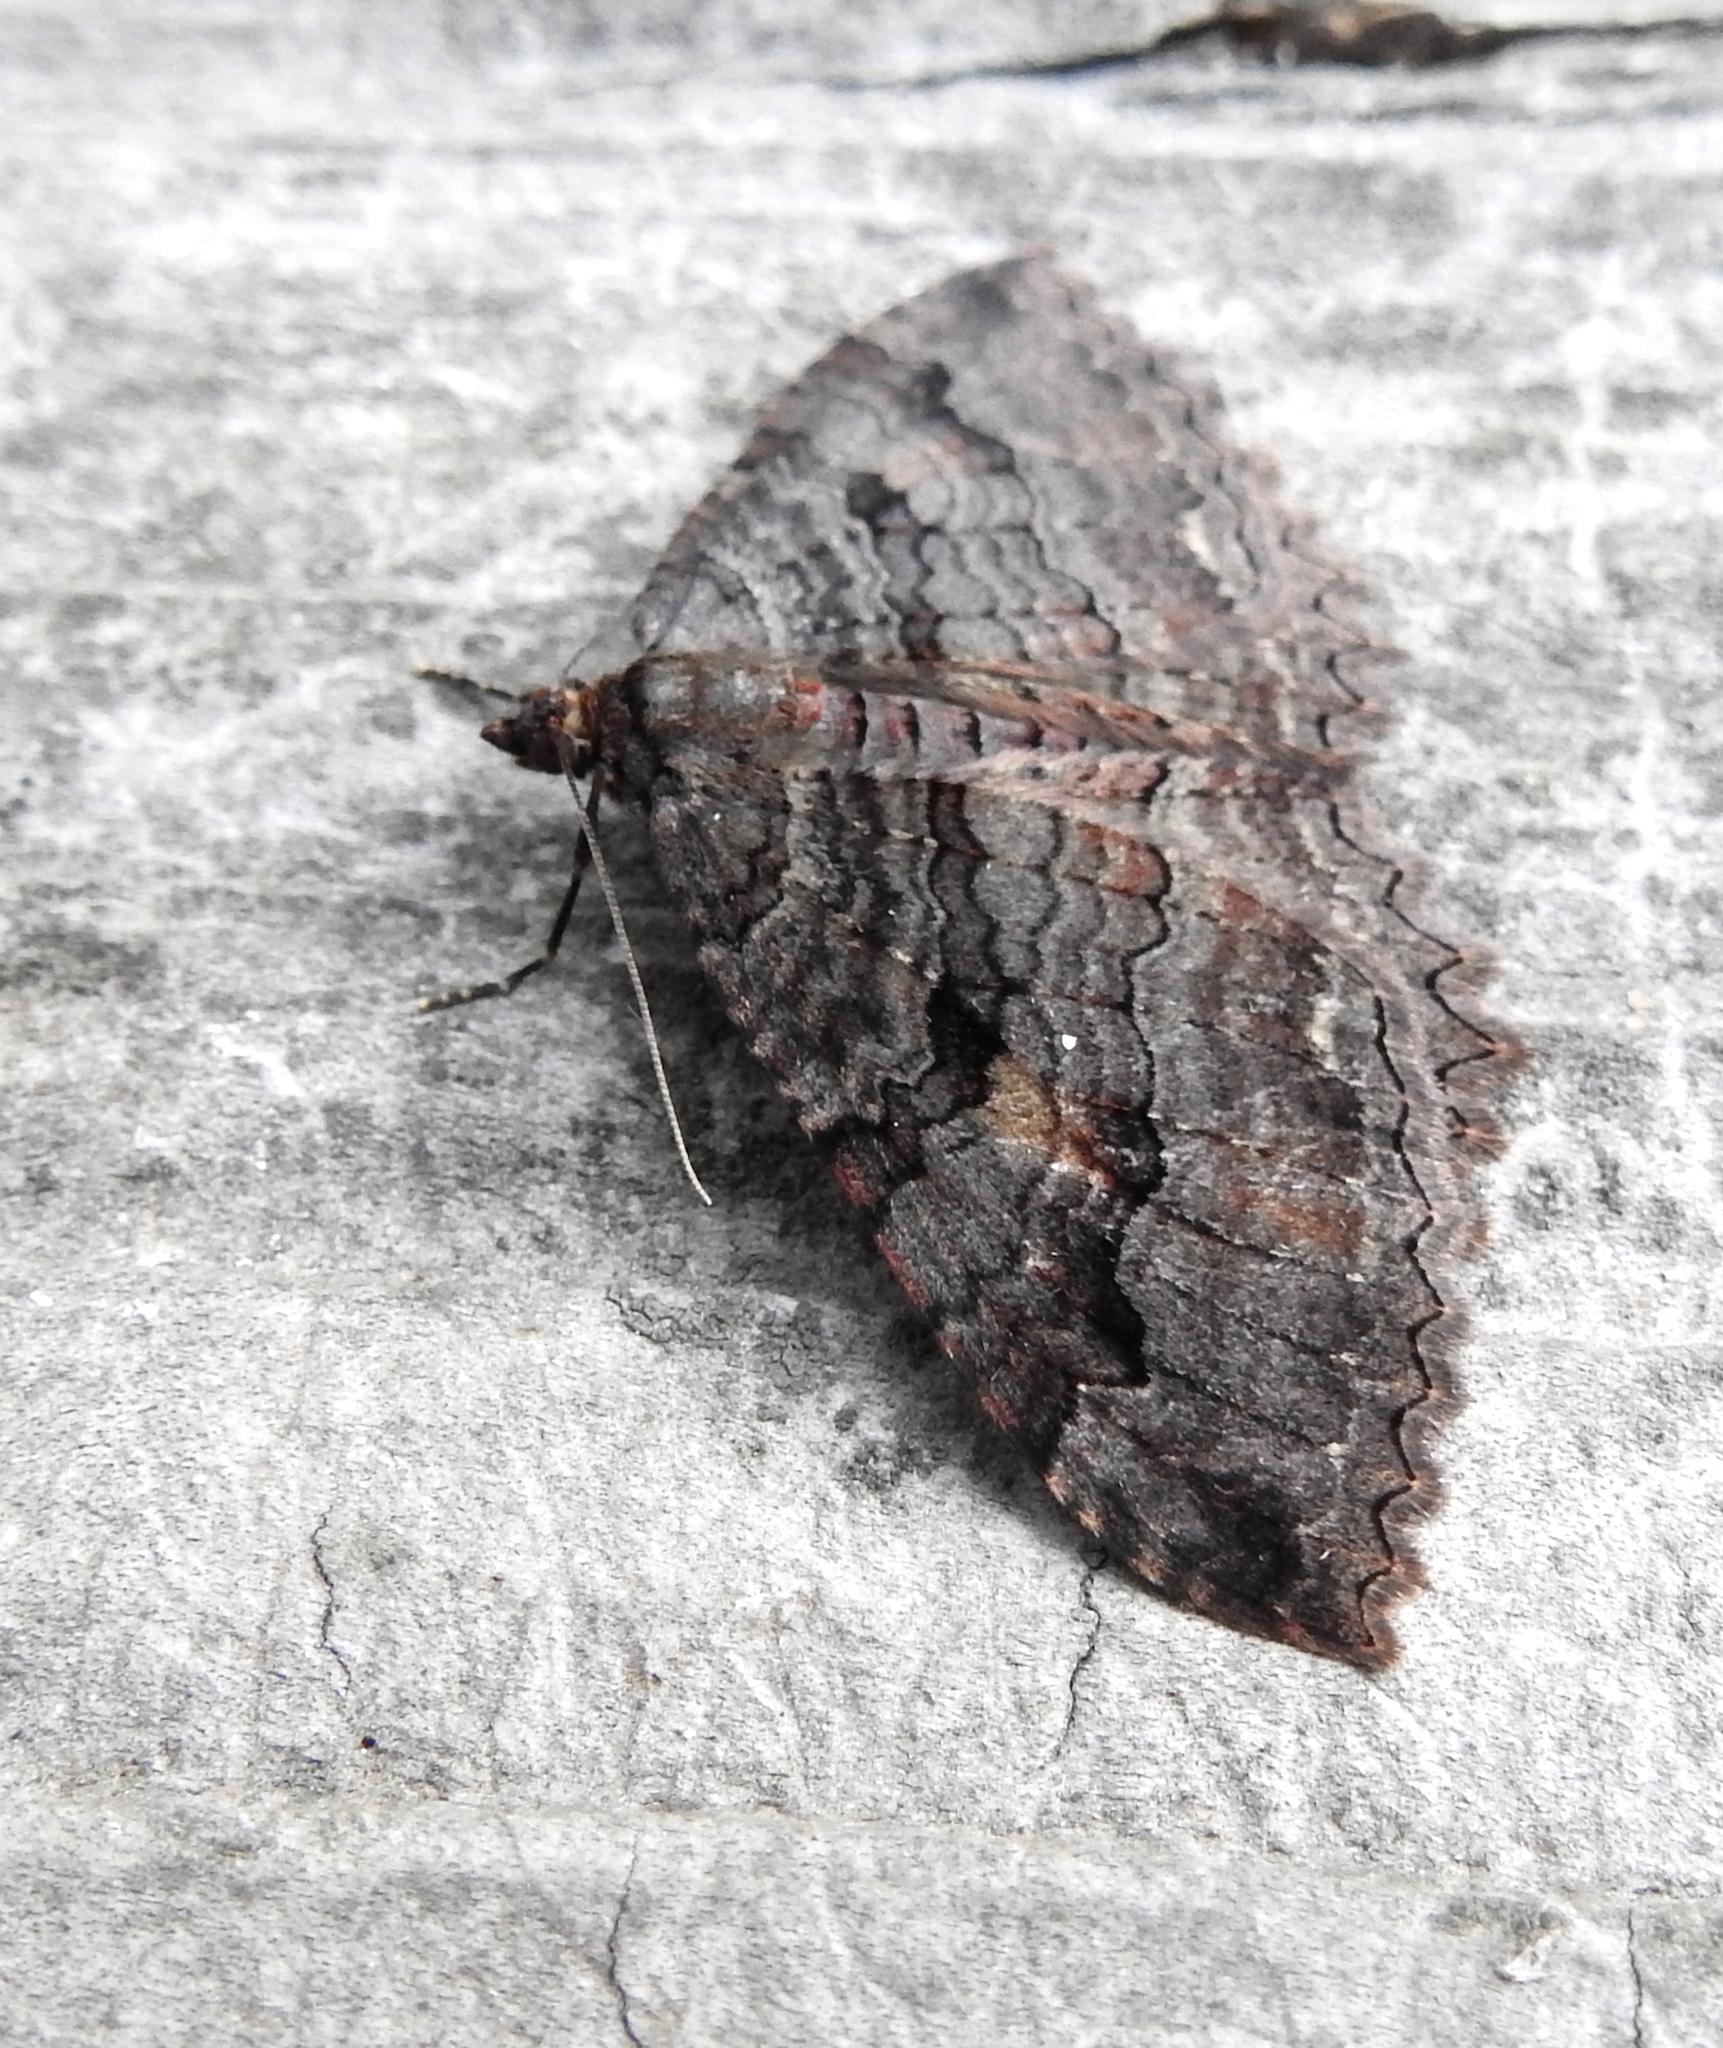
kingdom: Animalia
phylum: Arthropoda
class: Insecta
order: Lepidoptera
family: Geometridae
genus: Triphosa
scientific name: Triphosa haesitata
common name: Tissue moth
